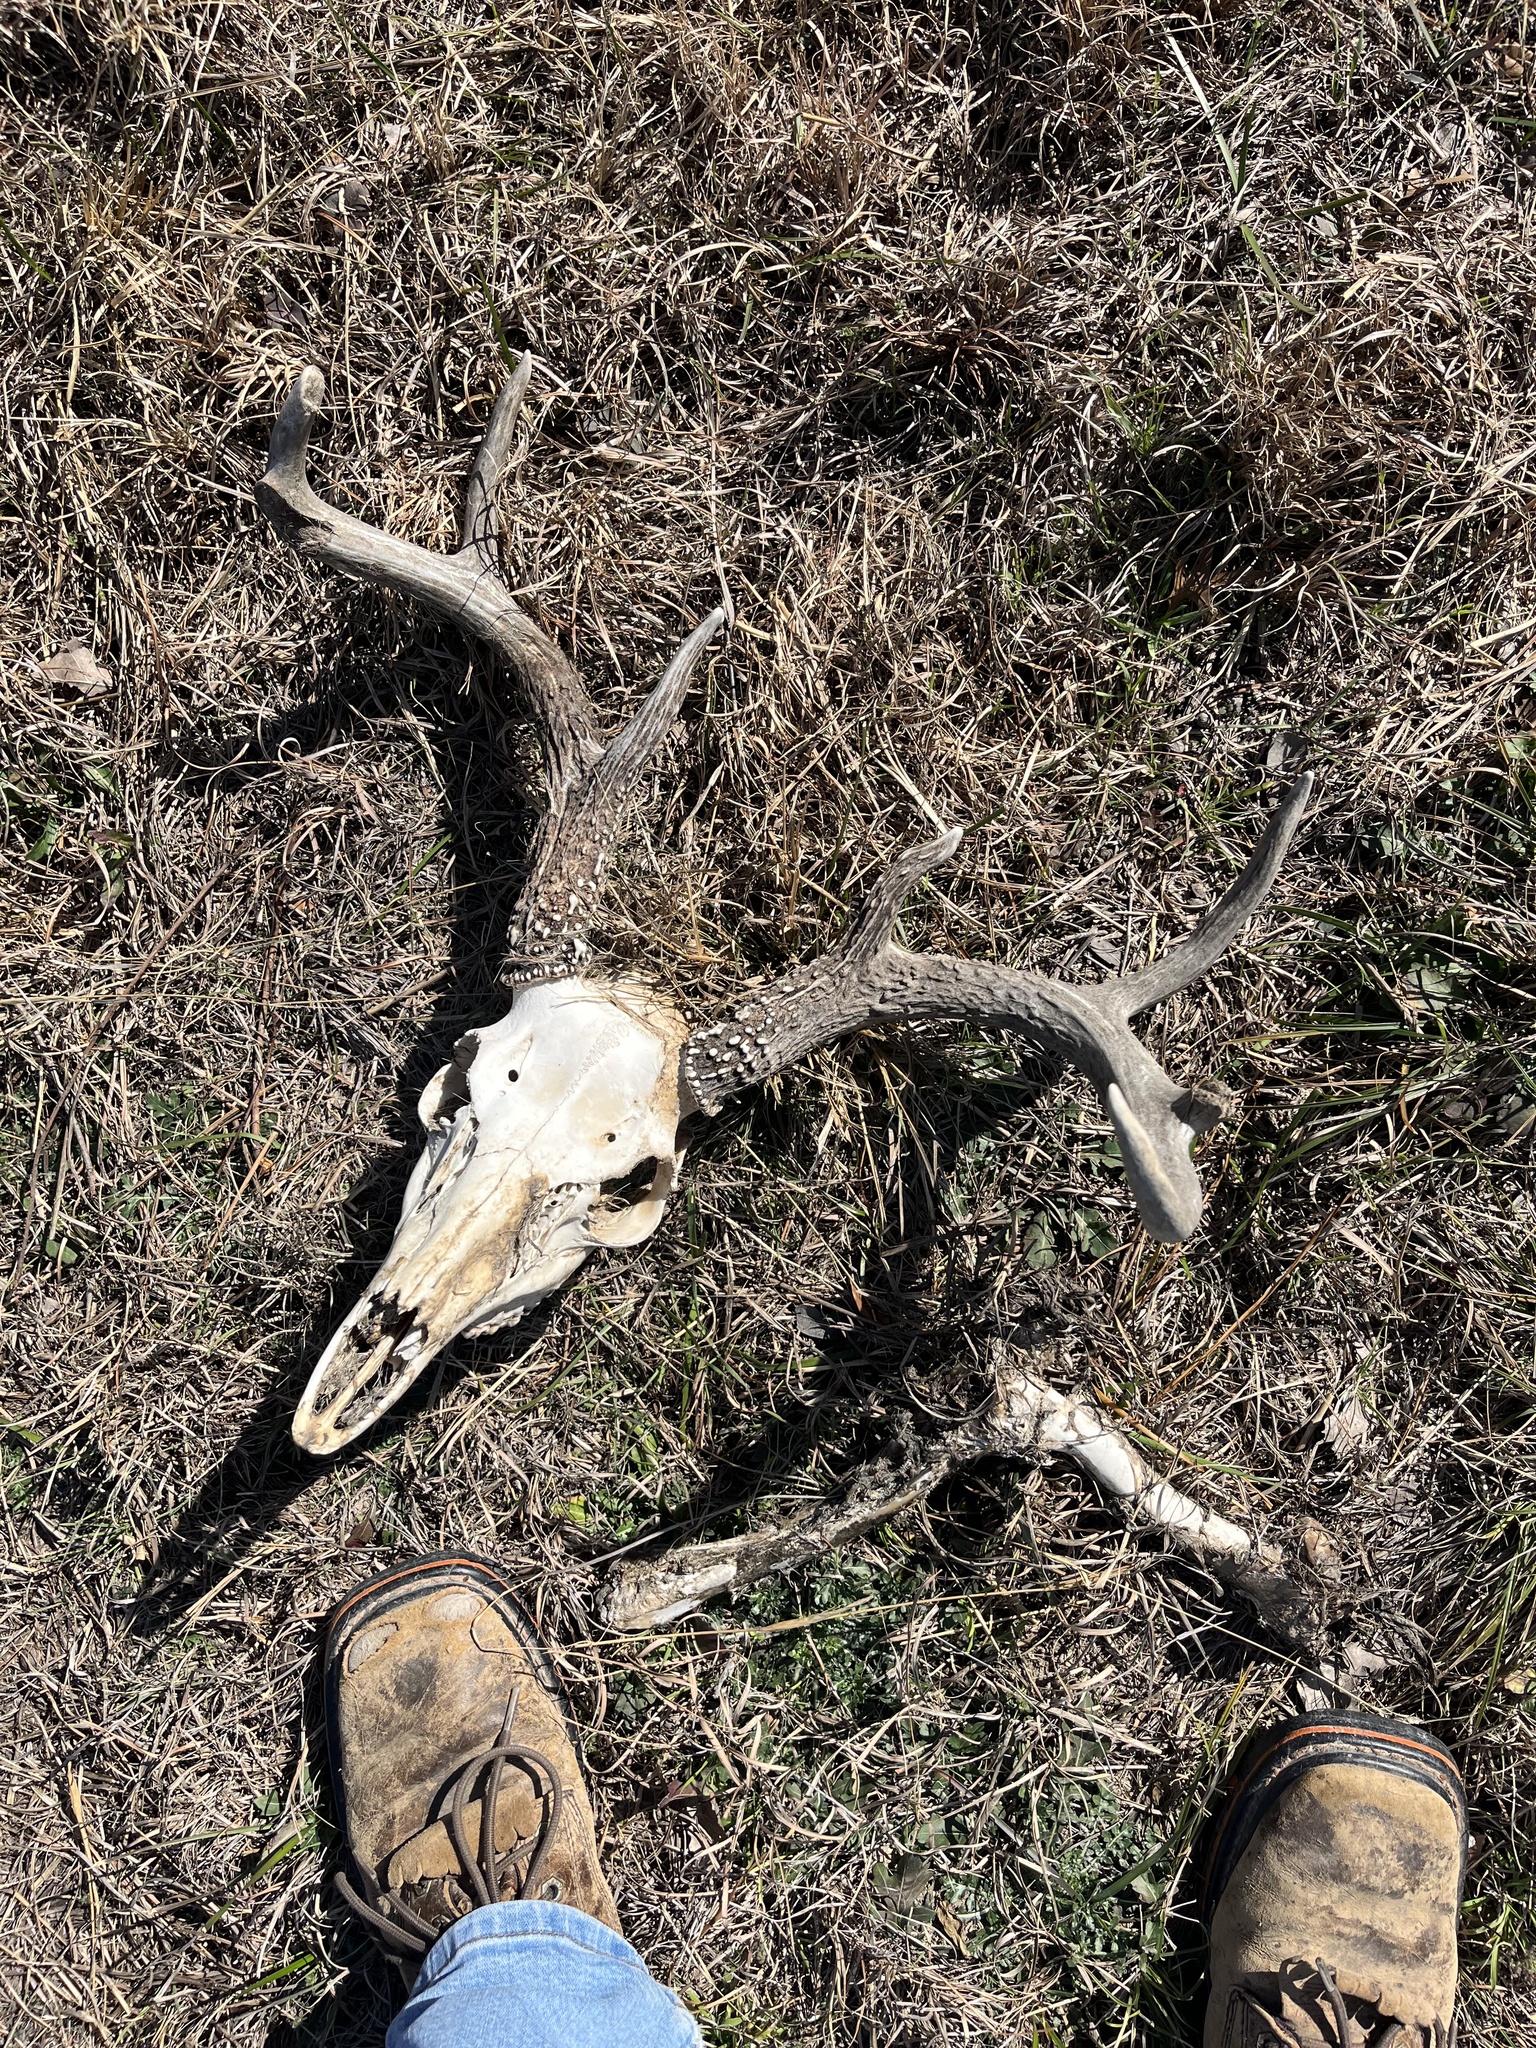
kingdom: Animalia
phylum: Chordata
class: Mammalia
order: Artiodactyla
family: Cervidae
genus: Odocoileus
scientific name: Odocoileus virginianus
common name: White-tailed deer
